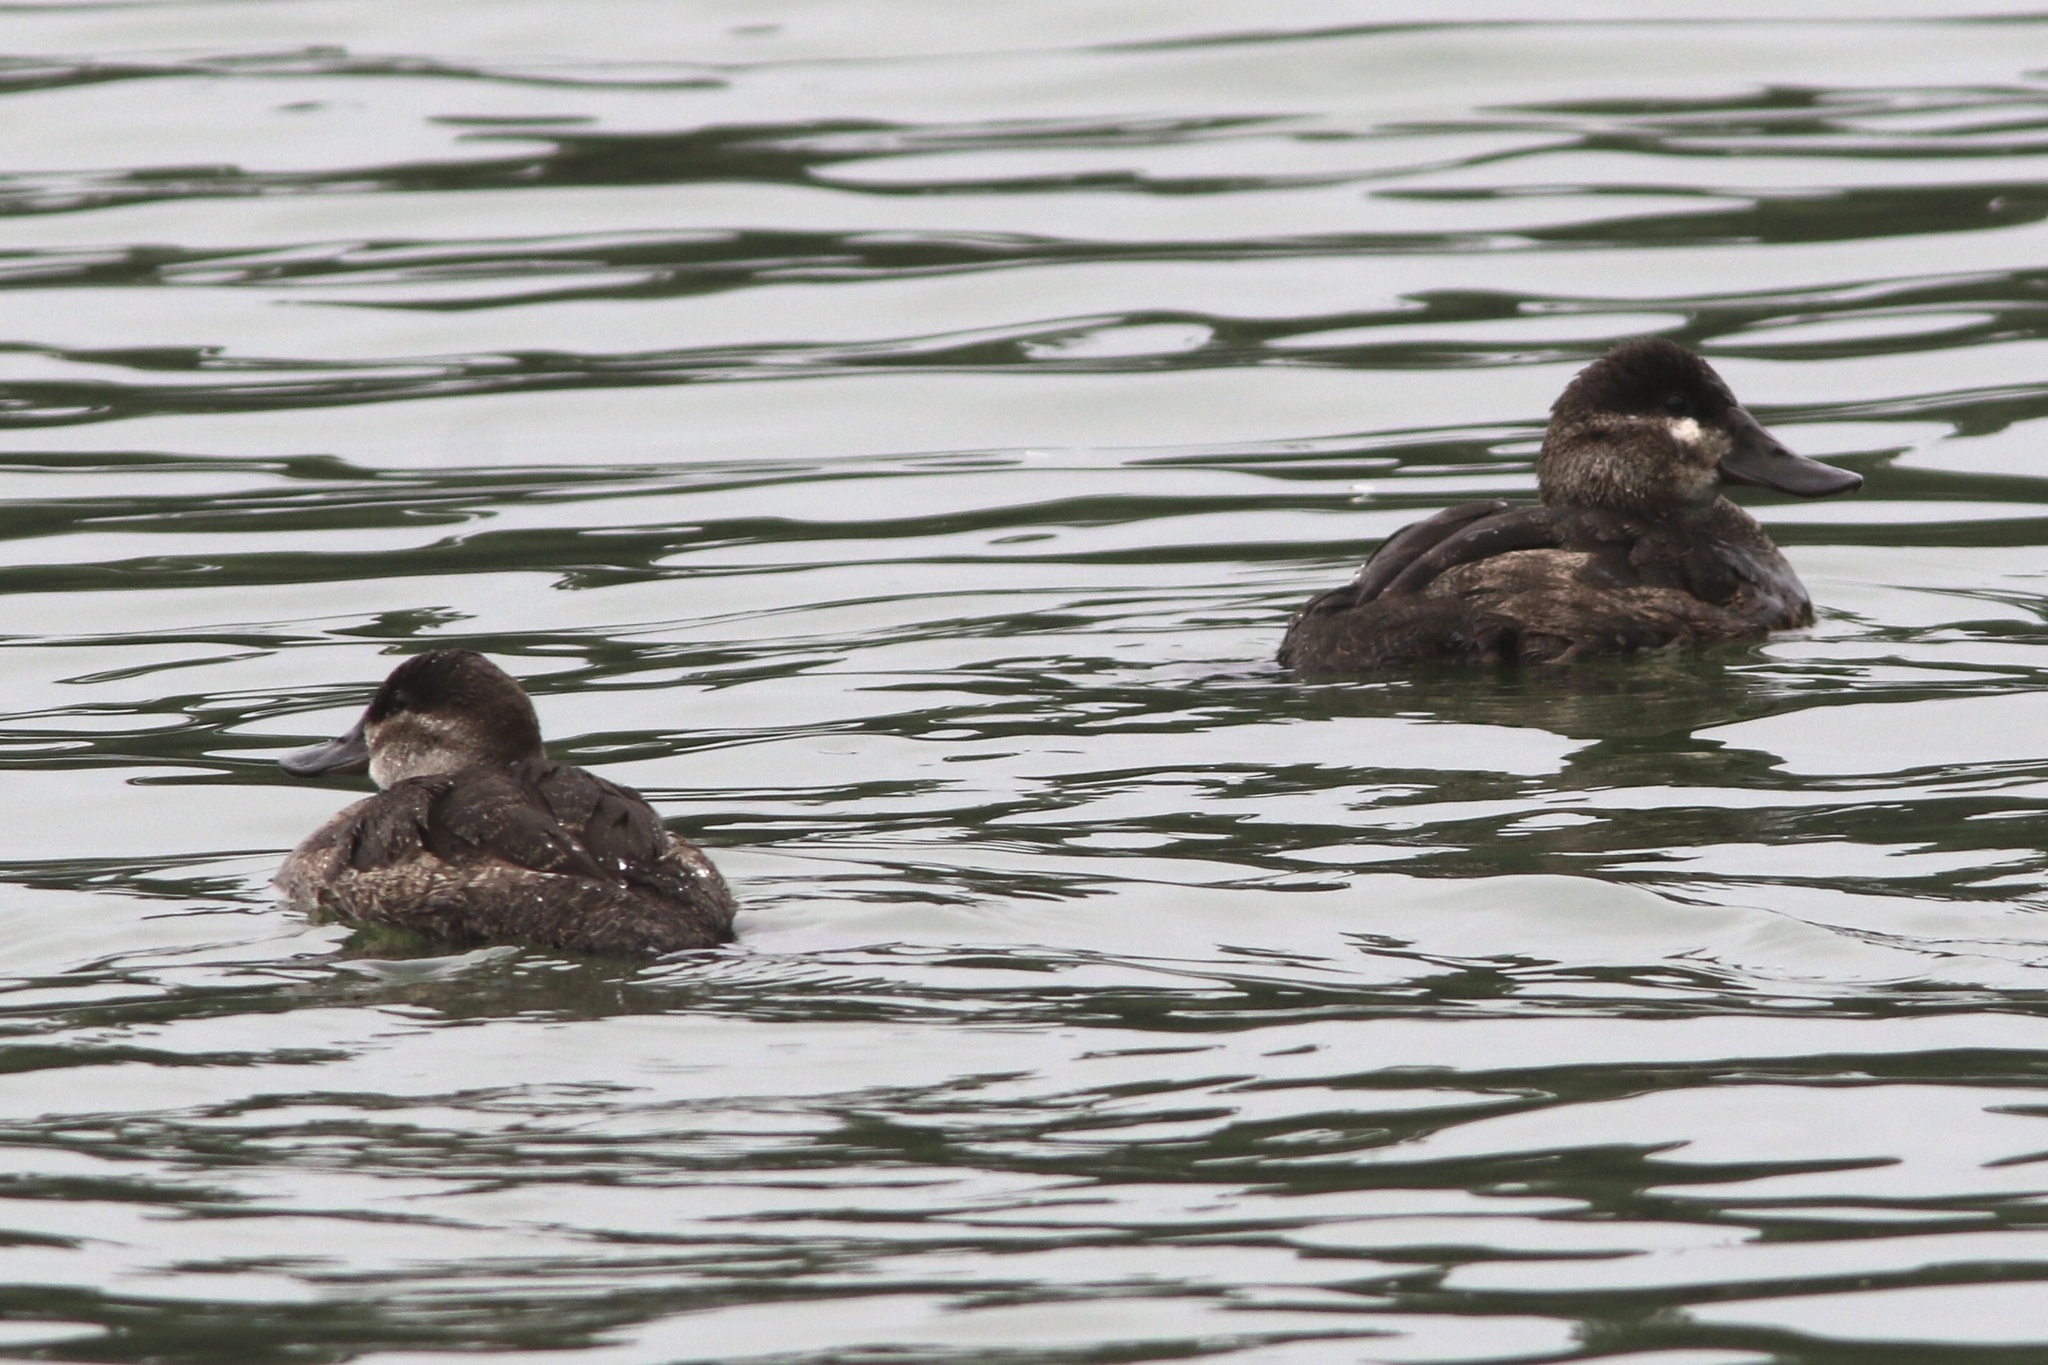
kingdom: Animalia
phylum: Chordata
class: Aves
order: Anseriformes
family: Anatidae
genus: Oxyura
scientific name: Oxyura jamaicensis
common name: Ruddy duck
